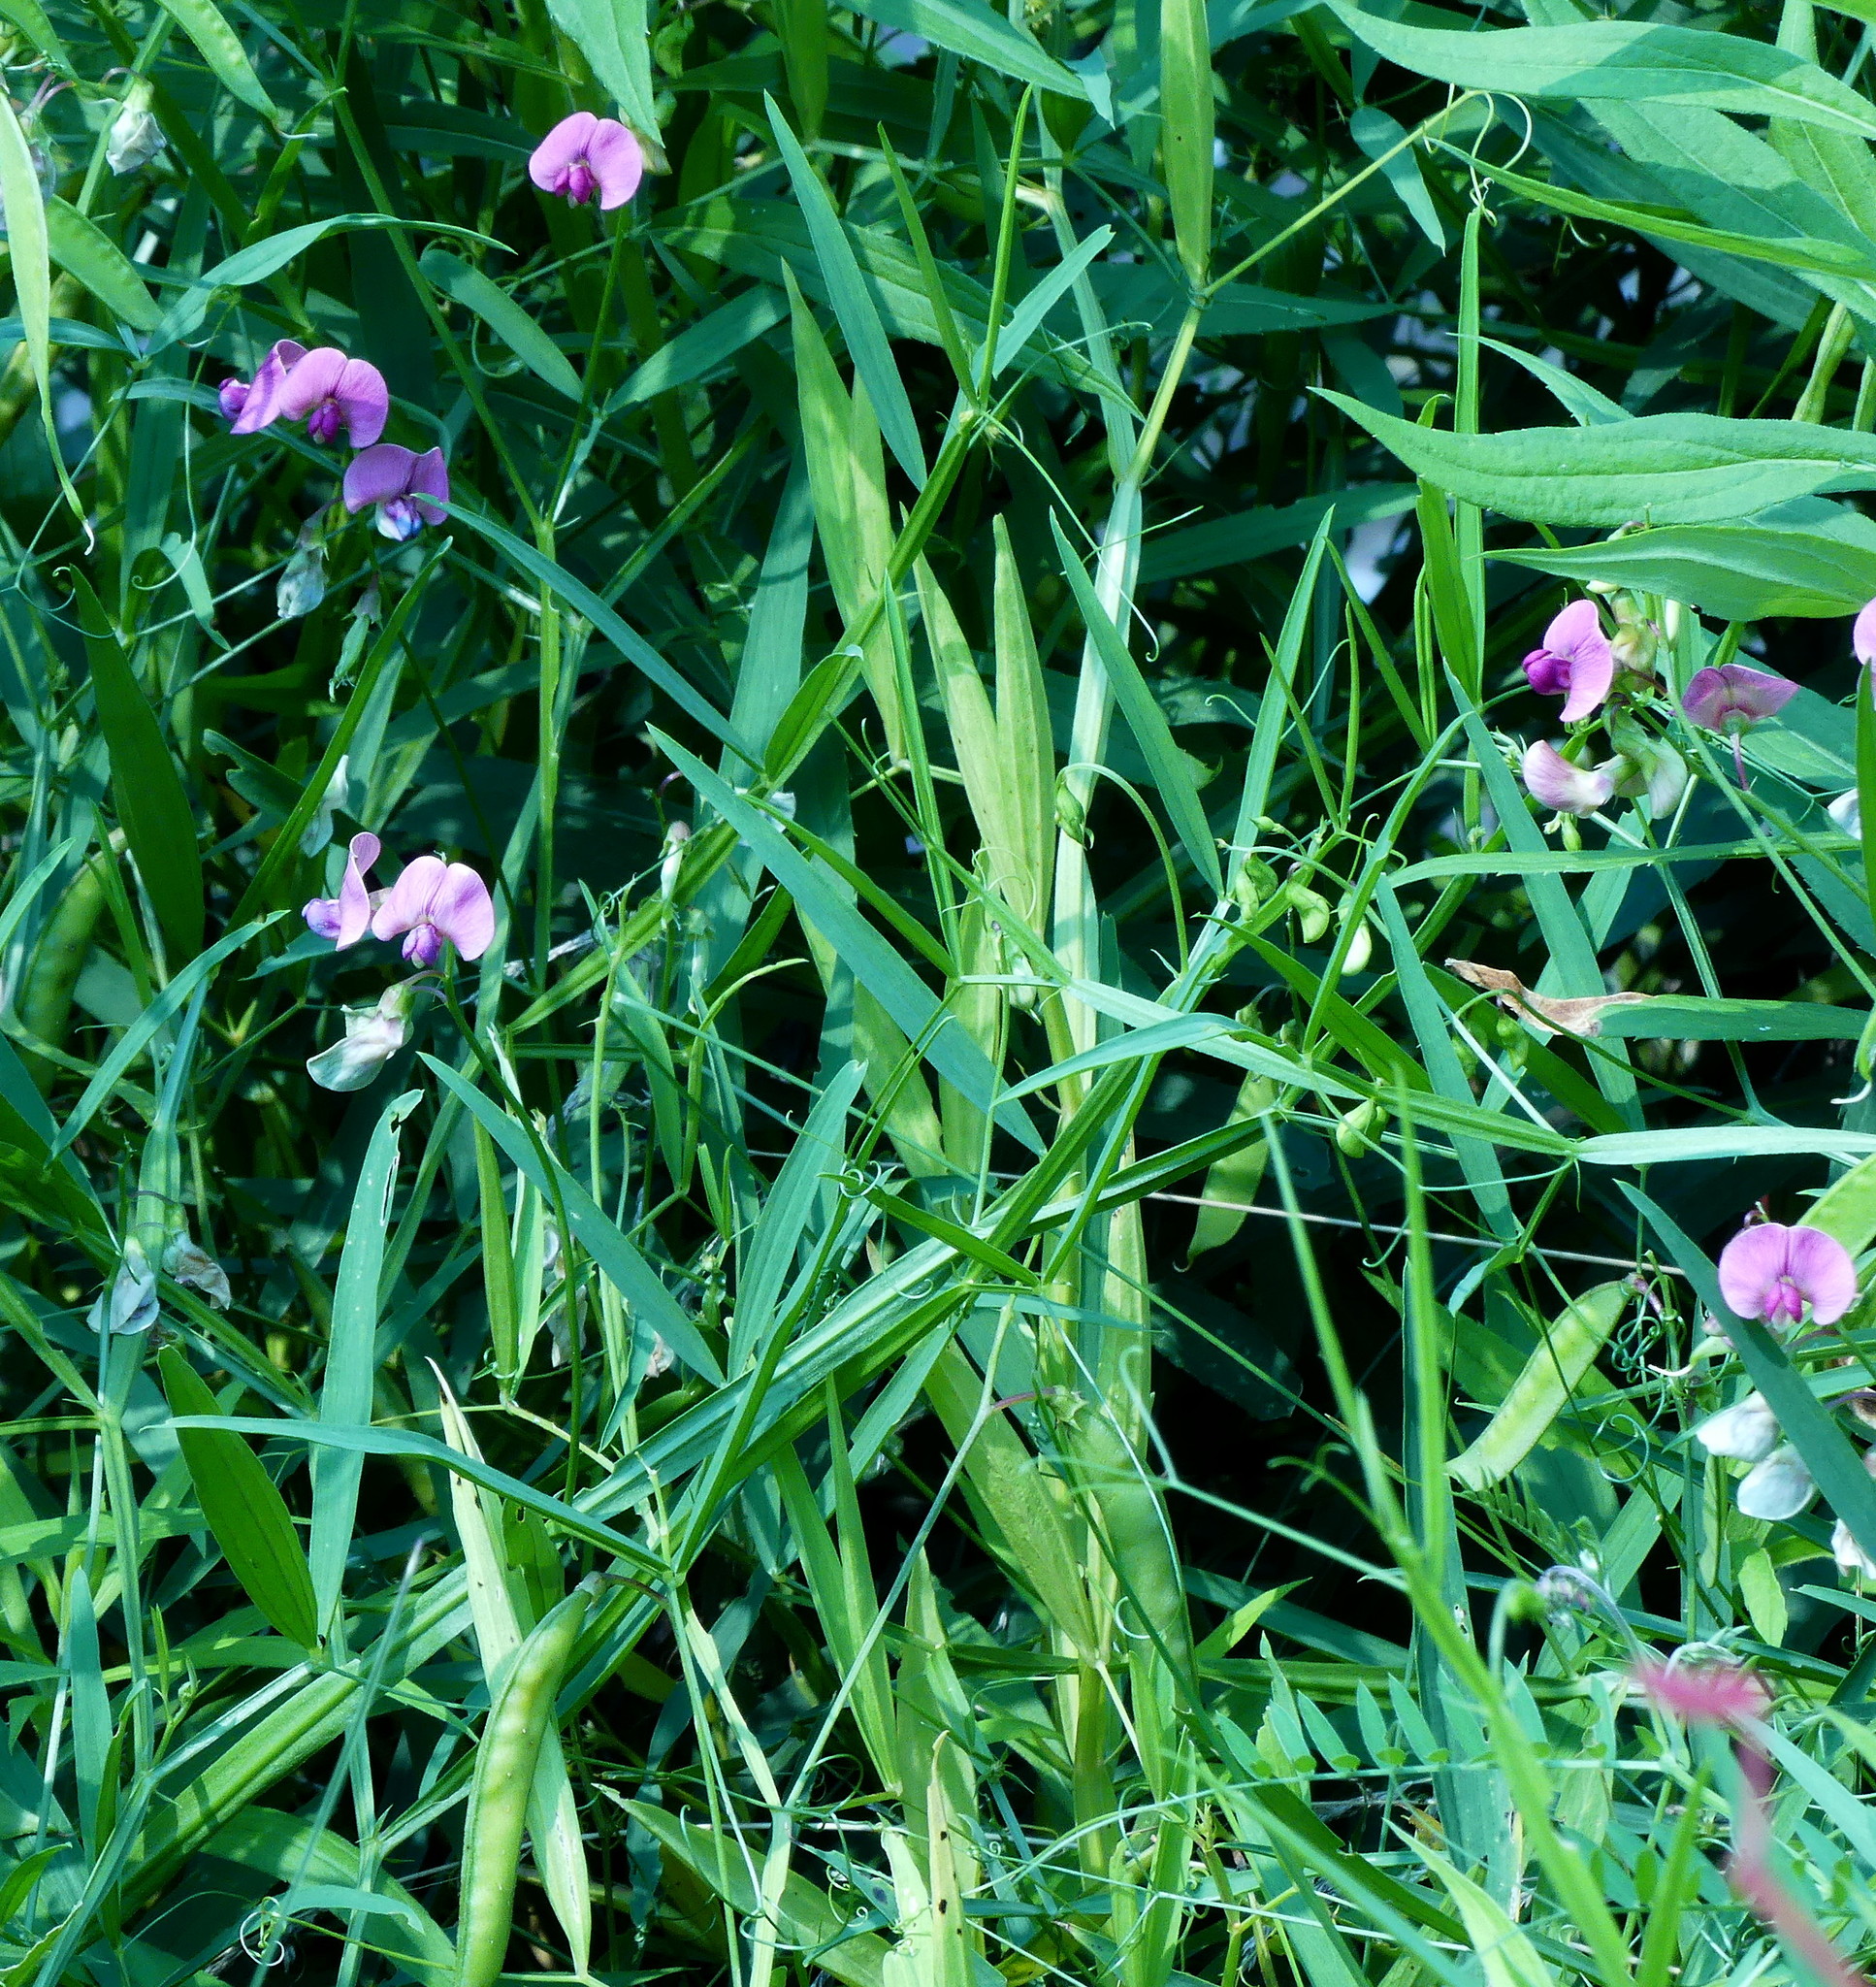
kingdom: Plantae
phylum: Tracheophyta
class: Magnoliopsida
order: Fabales
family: Fabaceae
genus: Lathyrus
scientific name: Lathyrus sylvestris
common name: Flat pea
